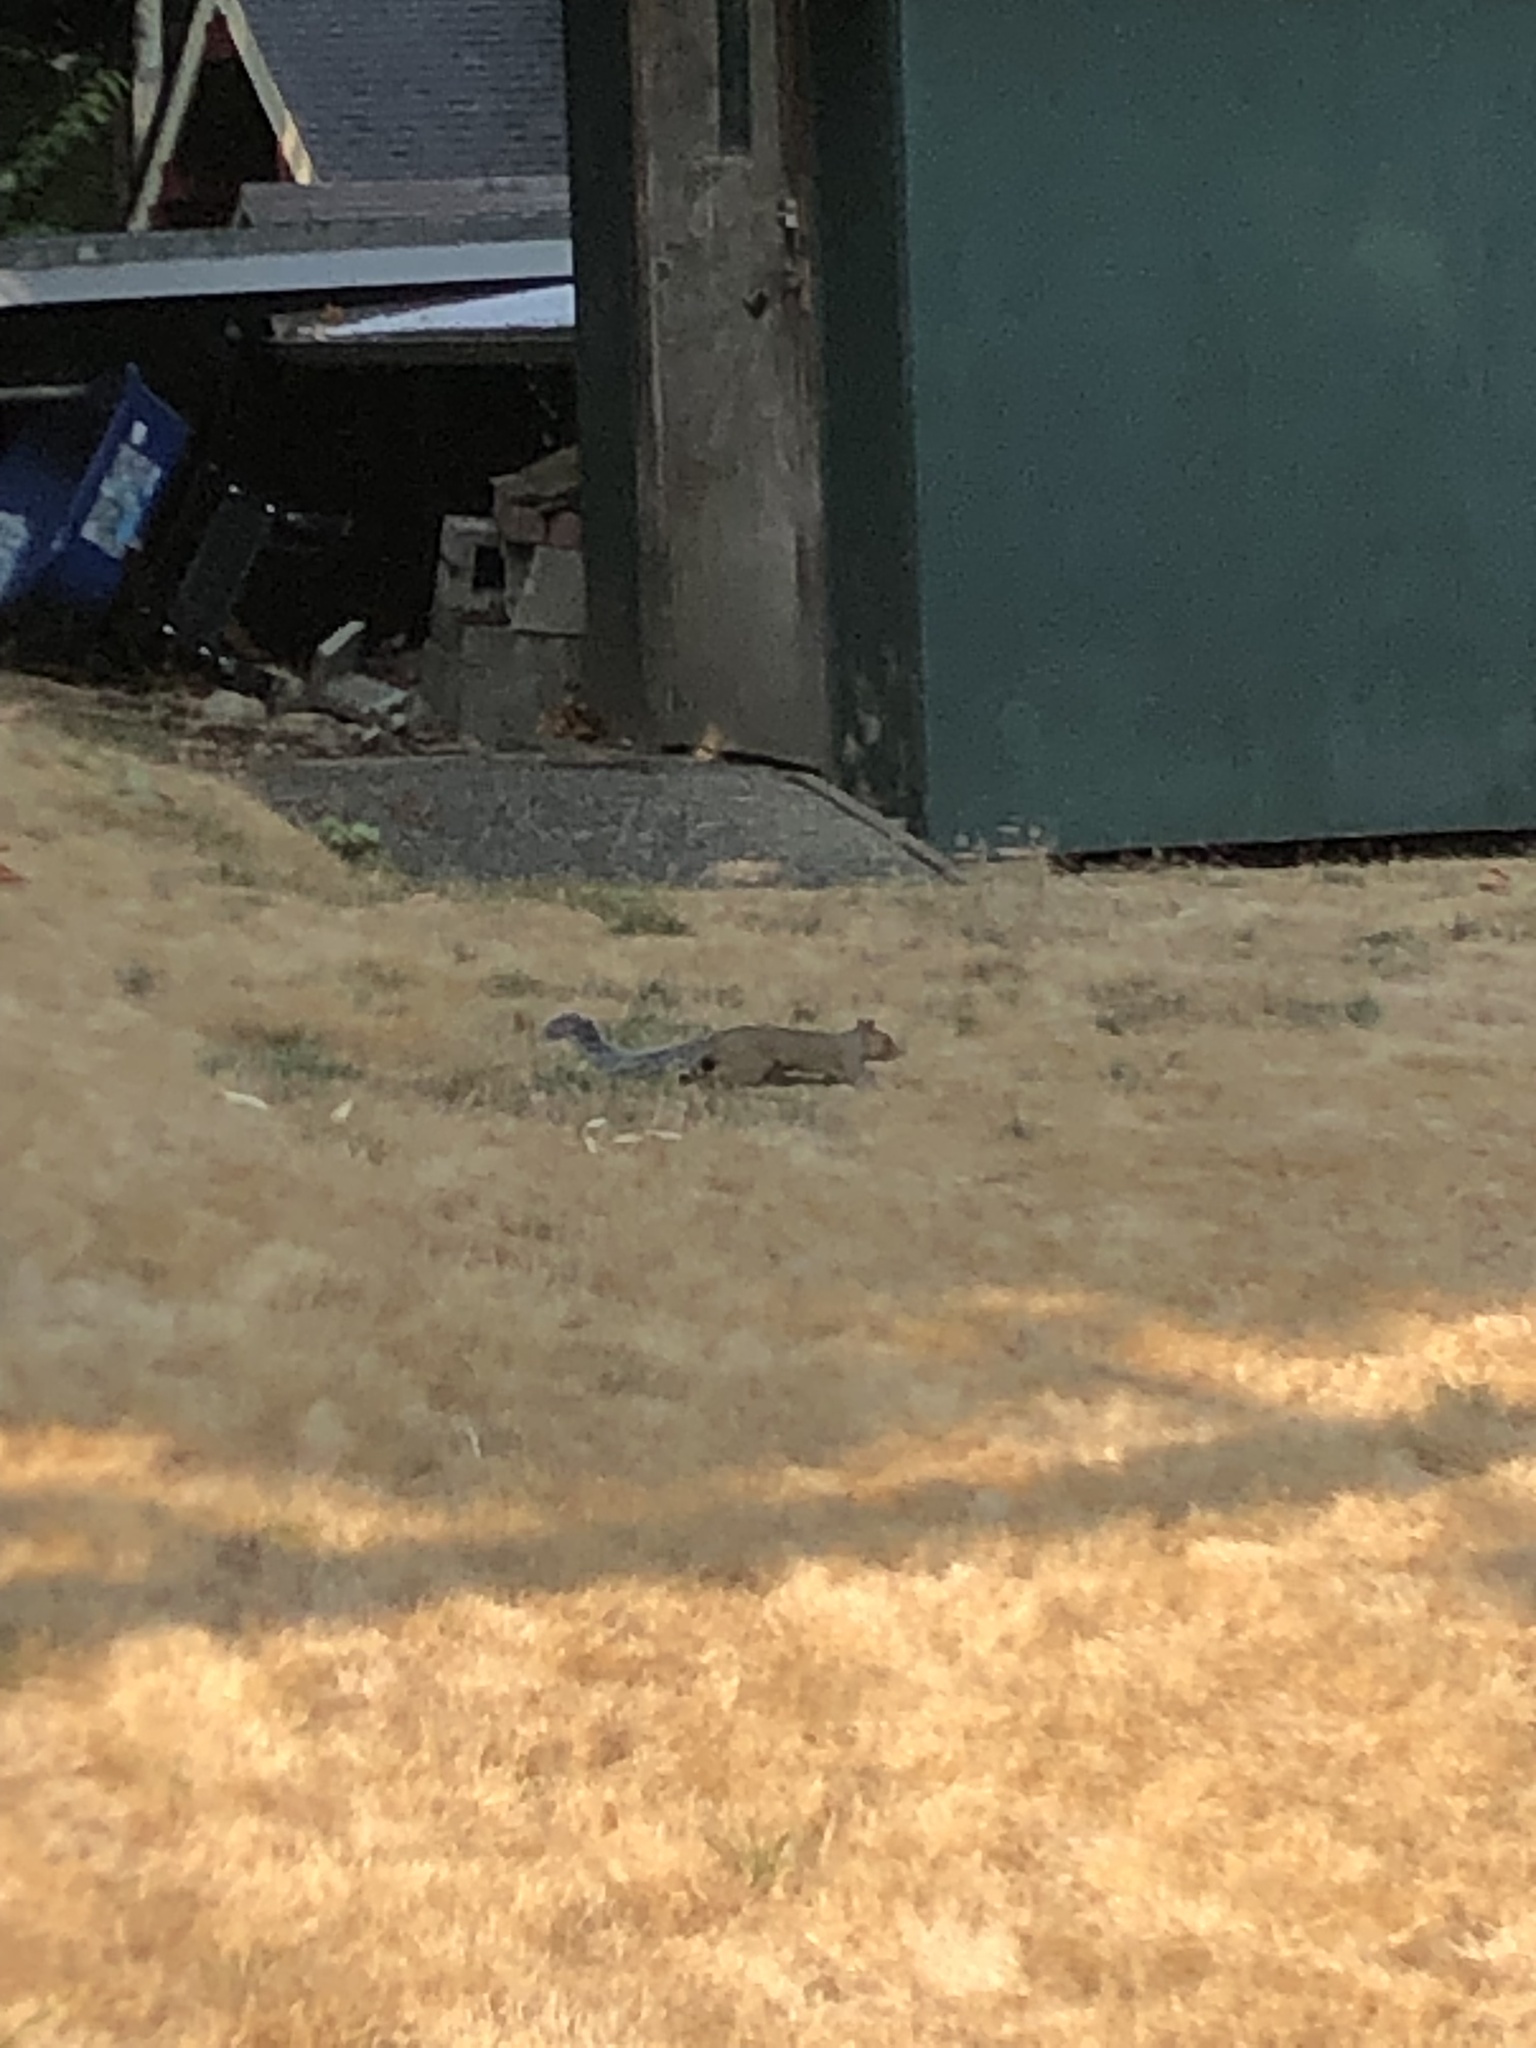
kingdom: Animalia
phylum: Chordata
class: Mammalia
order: Rodentia
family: Sciuridae
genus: Sciurus
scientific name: Sciurus carolinensis
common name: Eastern gray squirrel
